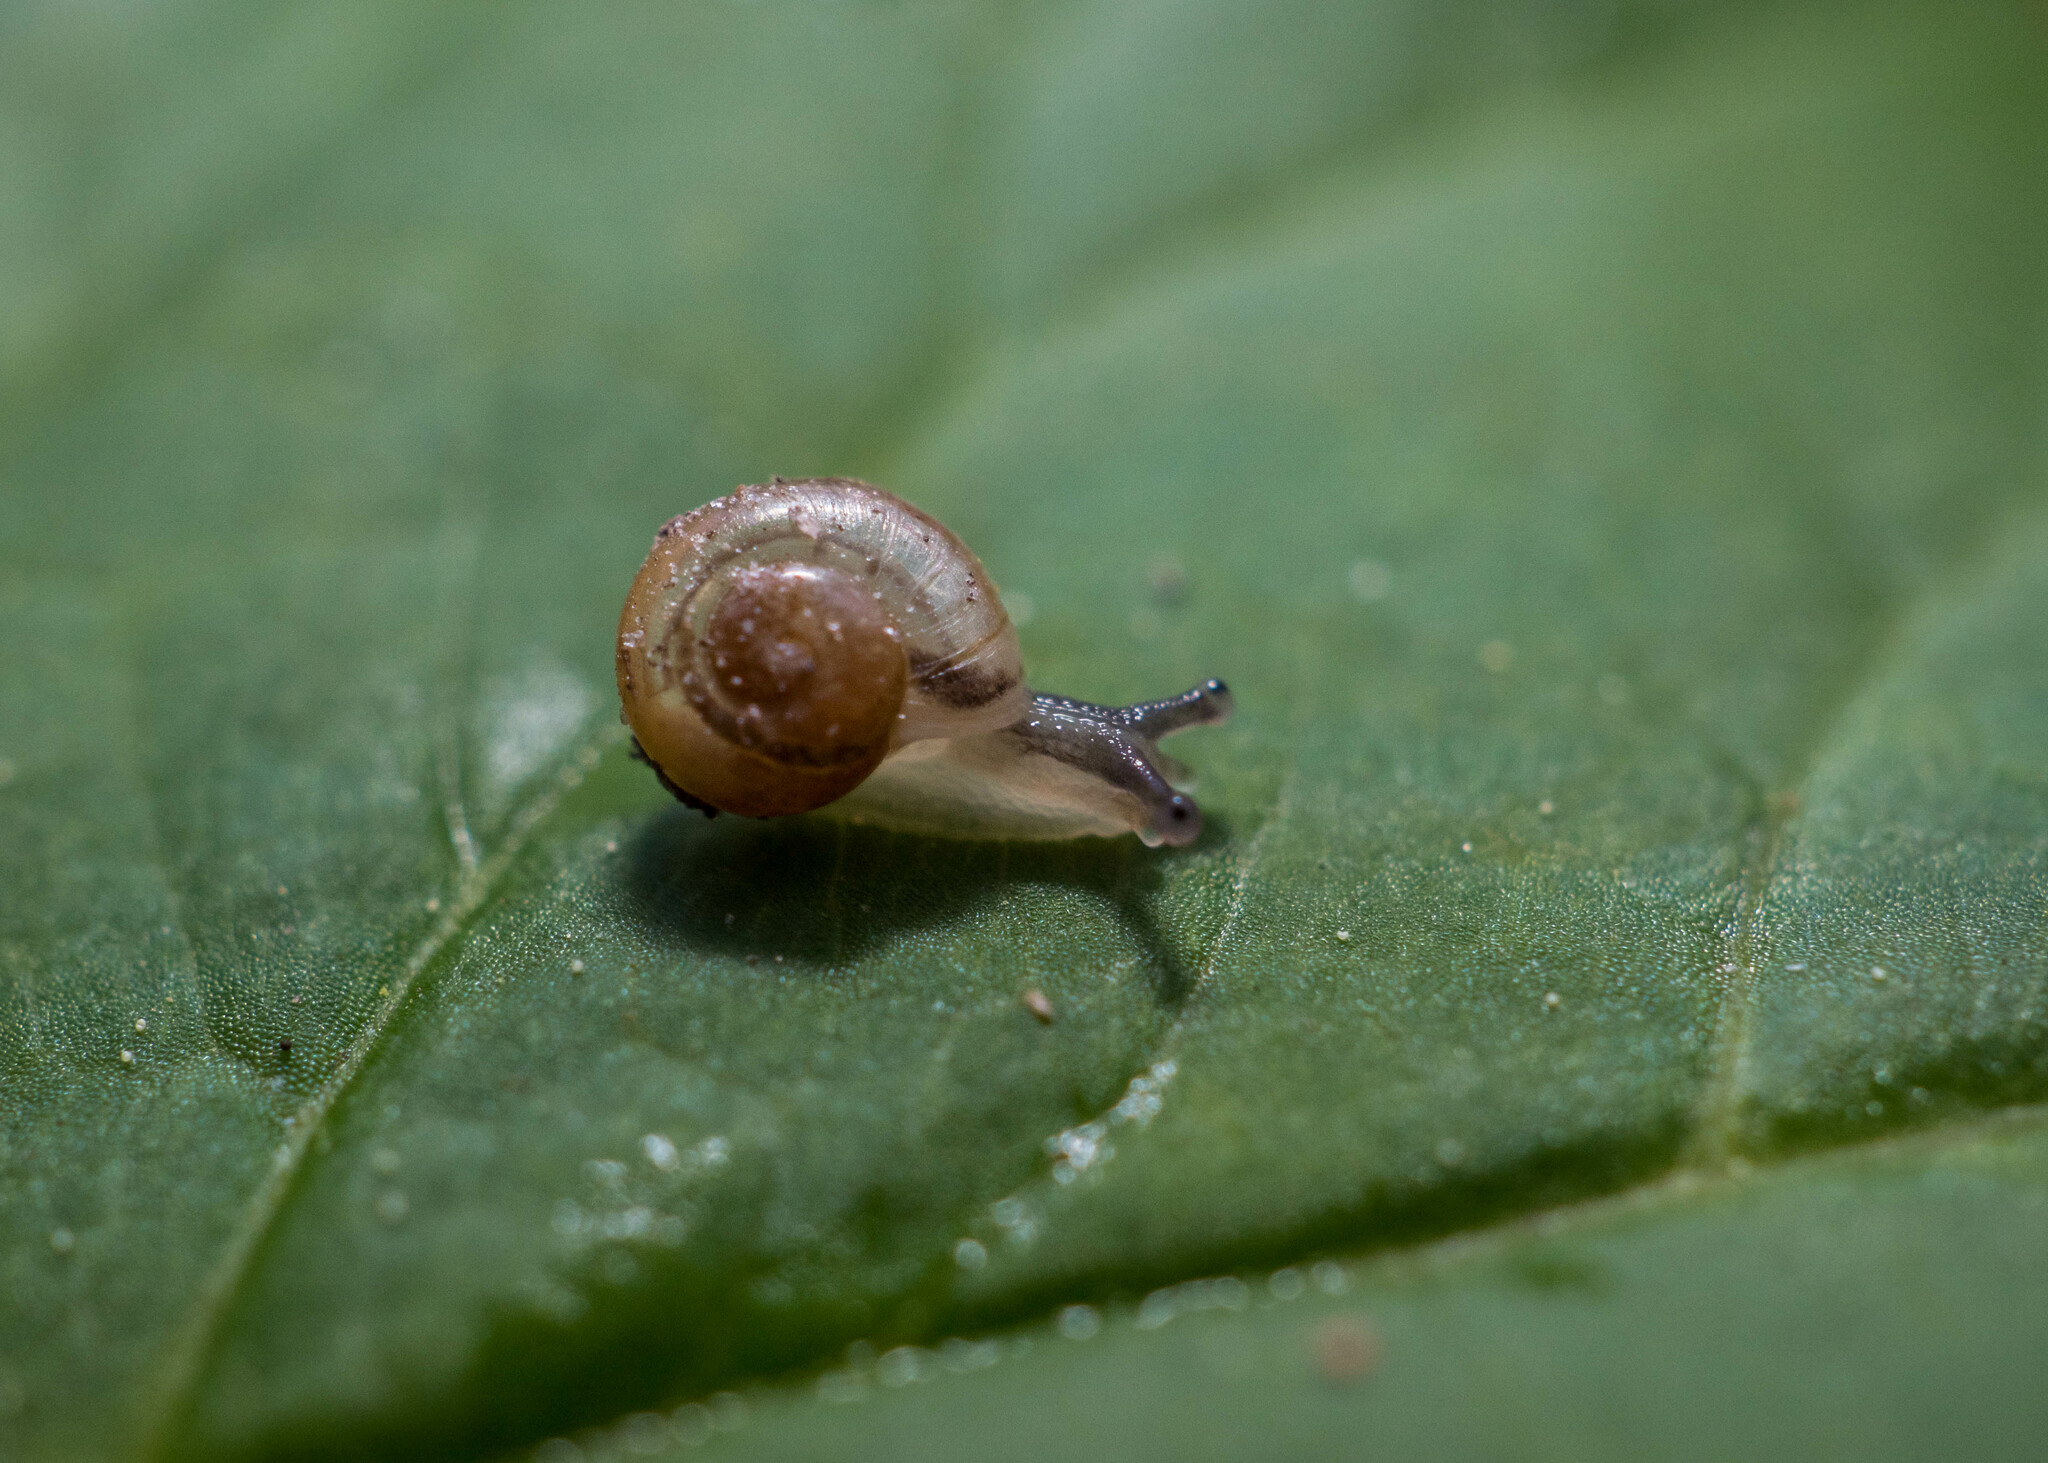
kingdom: Animalia
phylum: Mollusca
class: Gastropoda
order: Stylommatophora
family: Camaenidae
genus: Fruticicola
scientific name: Fruticicola fruticum
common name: Bush snail
